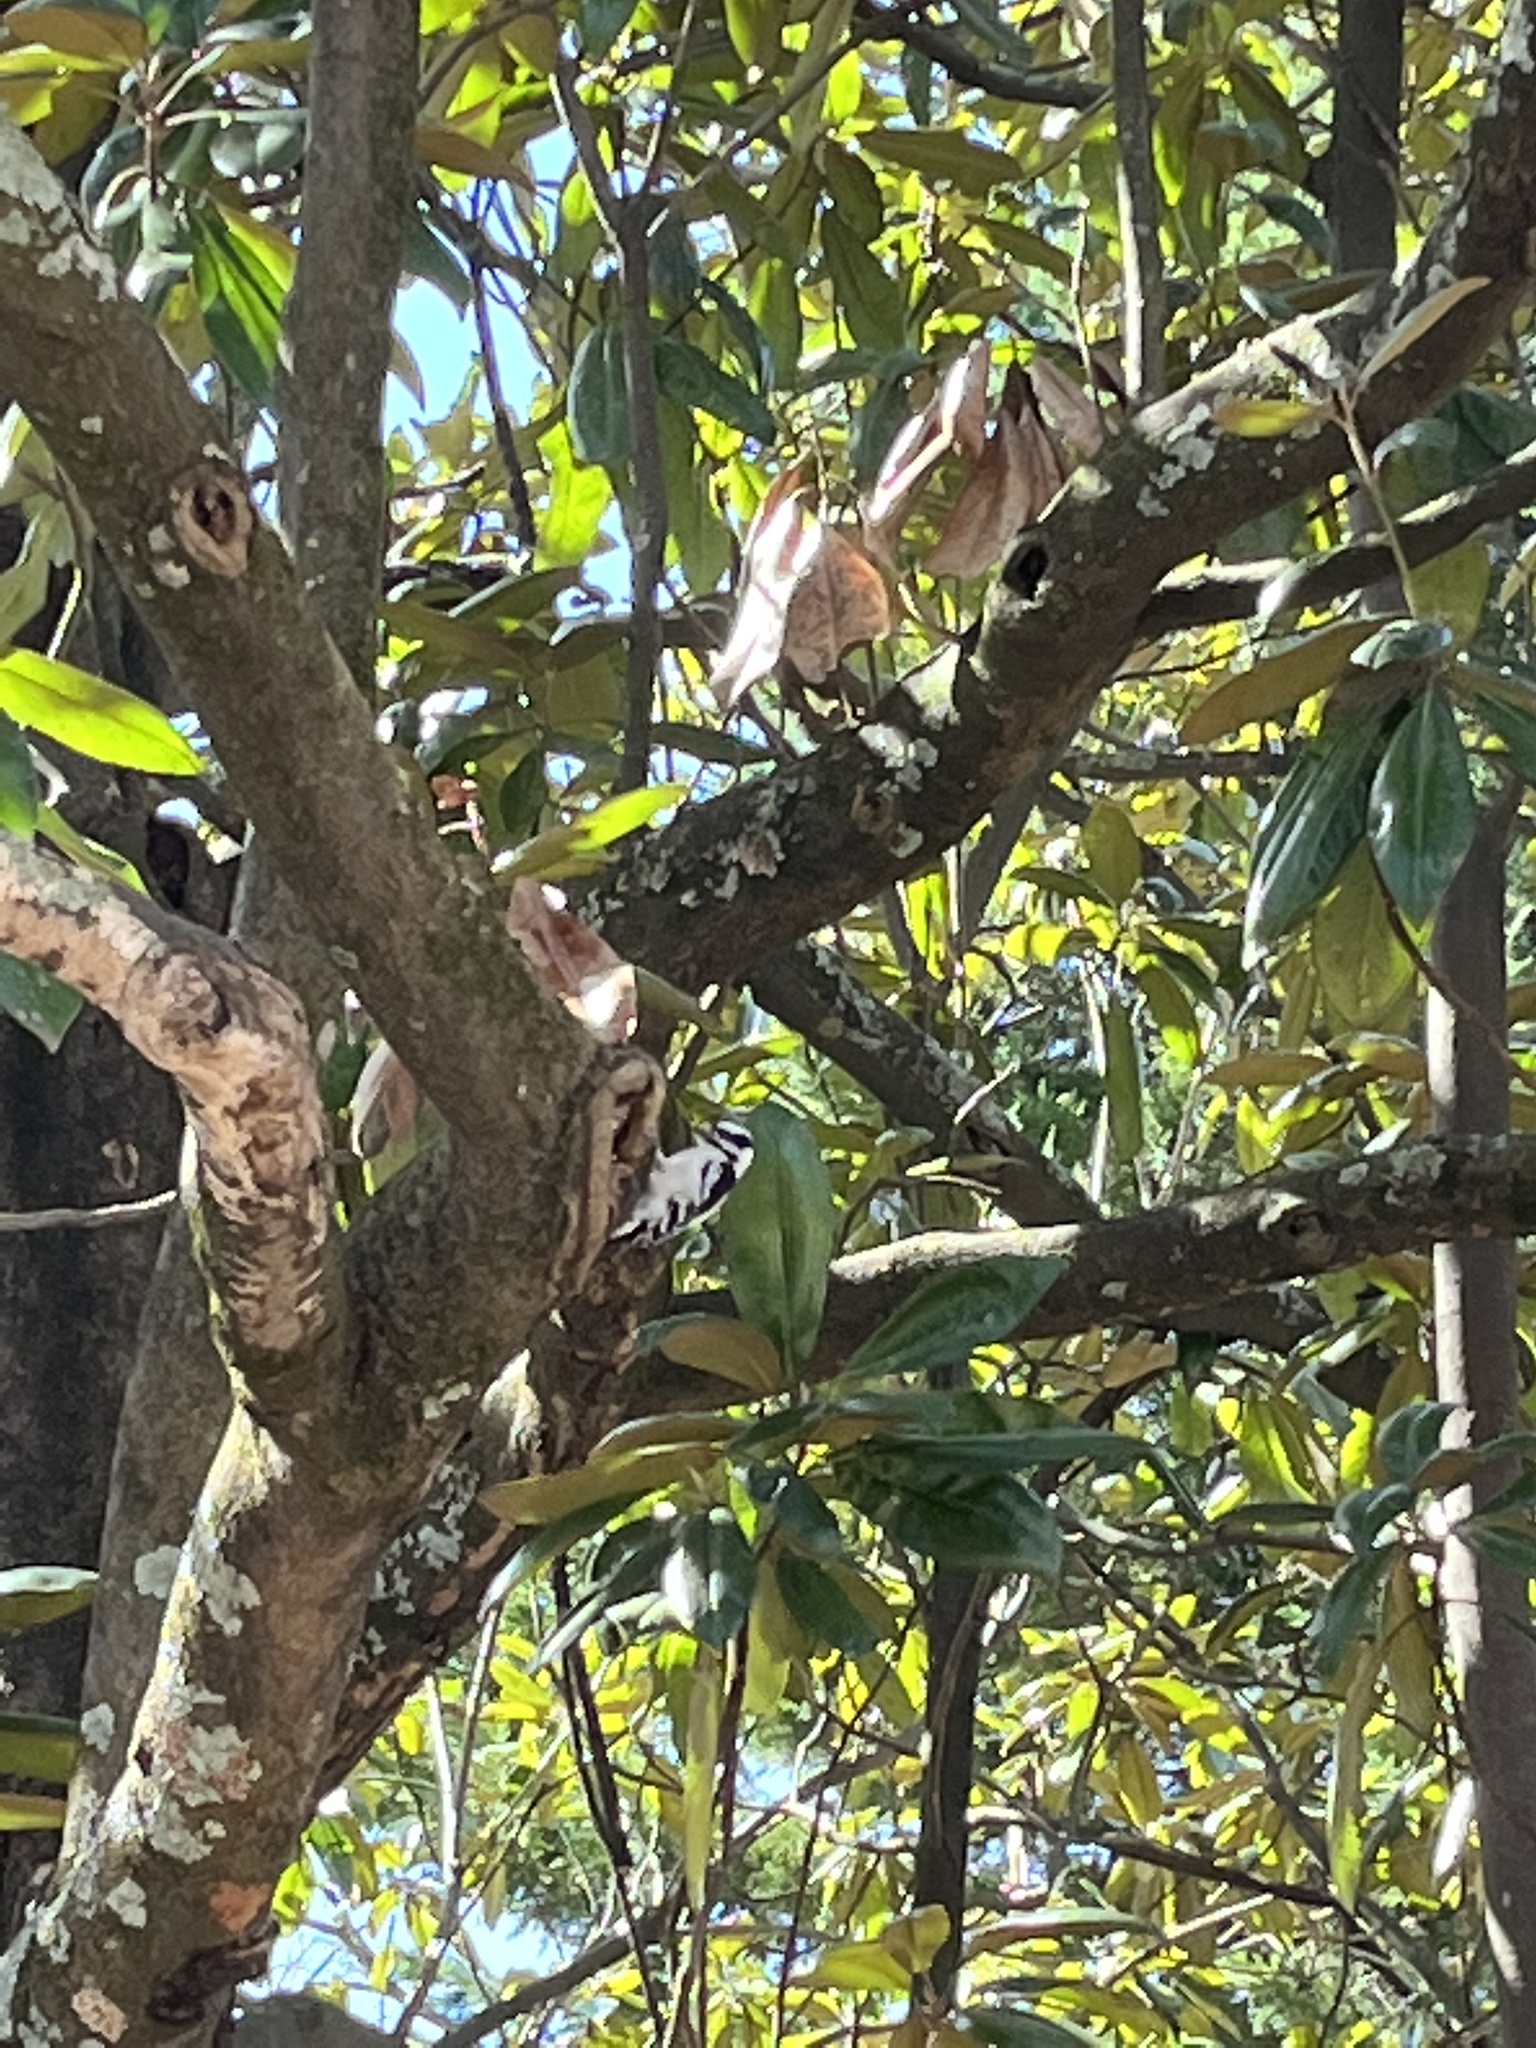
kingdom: Animalia
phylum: Chordata
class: Aves
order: Piciformes
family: Picidae
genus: Dryobates
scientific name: Dryobates pubescens
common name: Downy woodpecker
